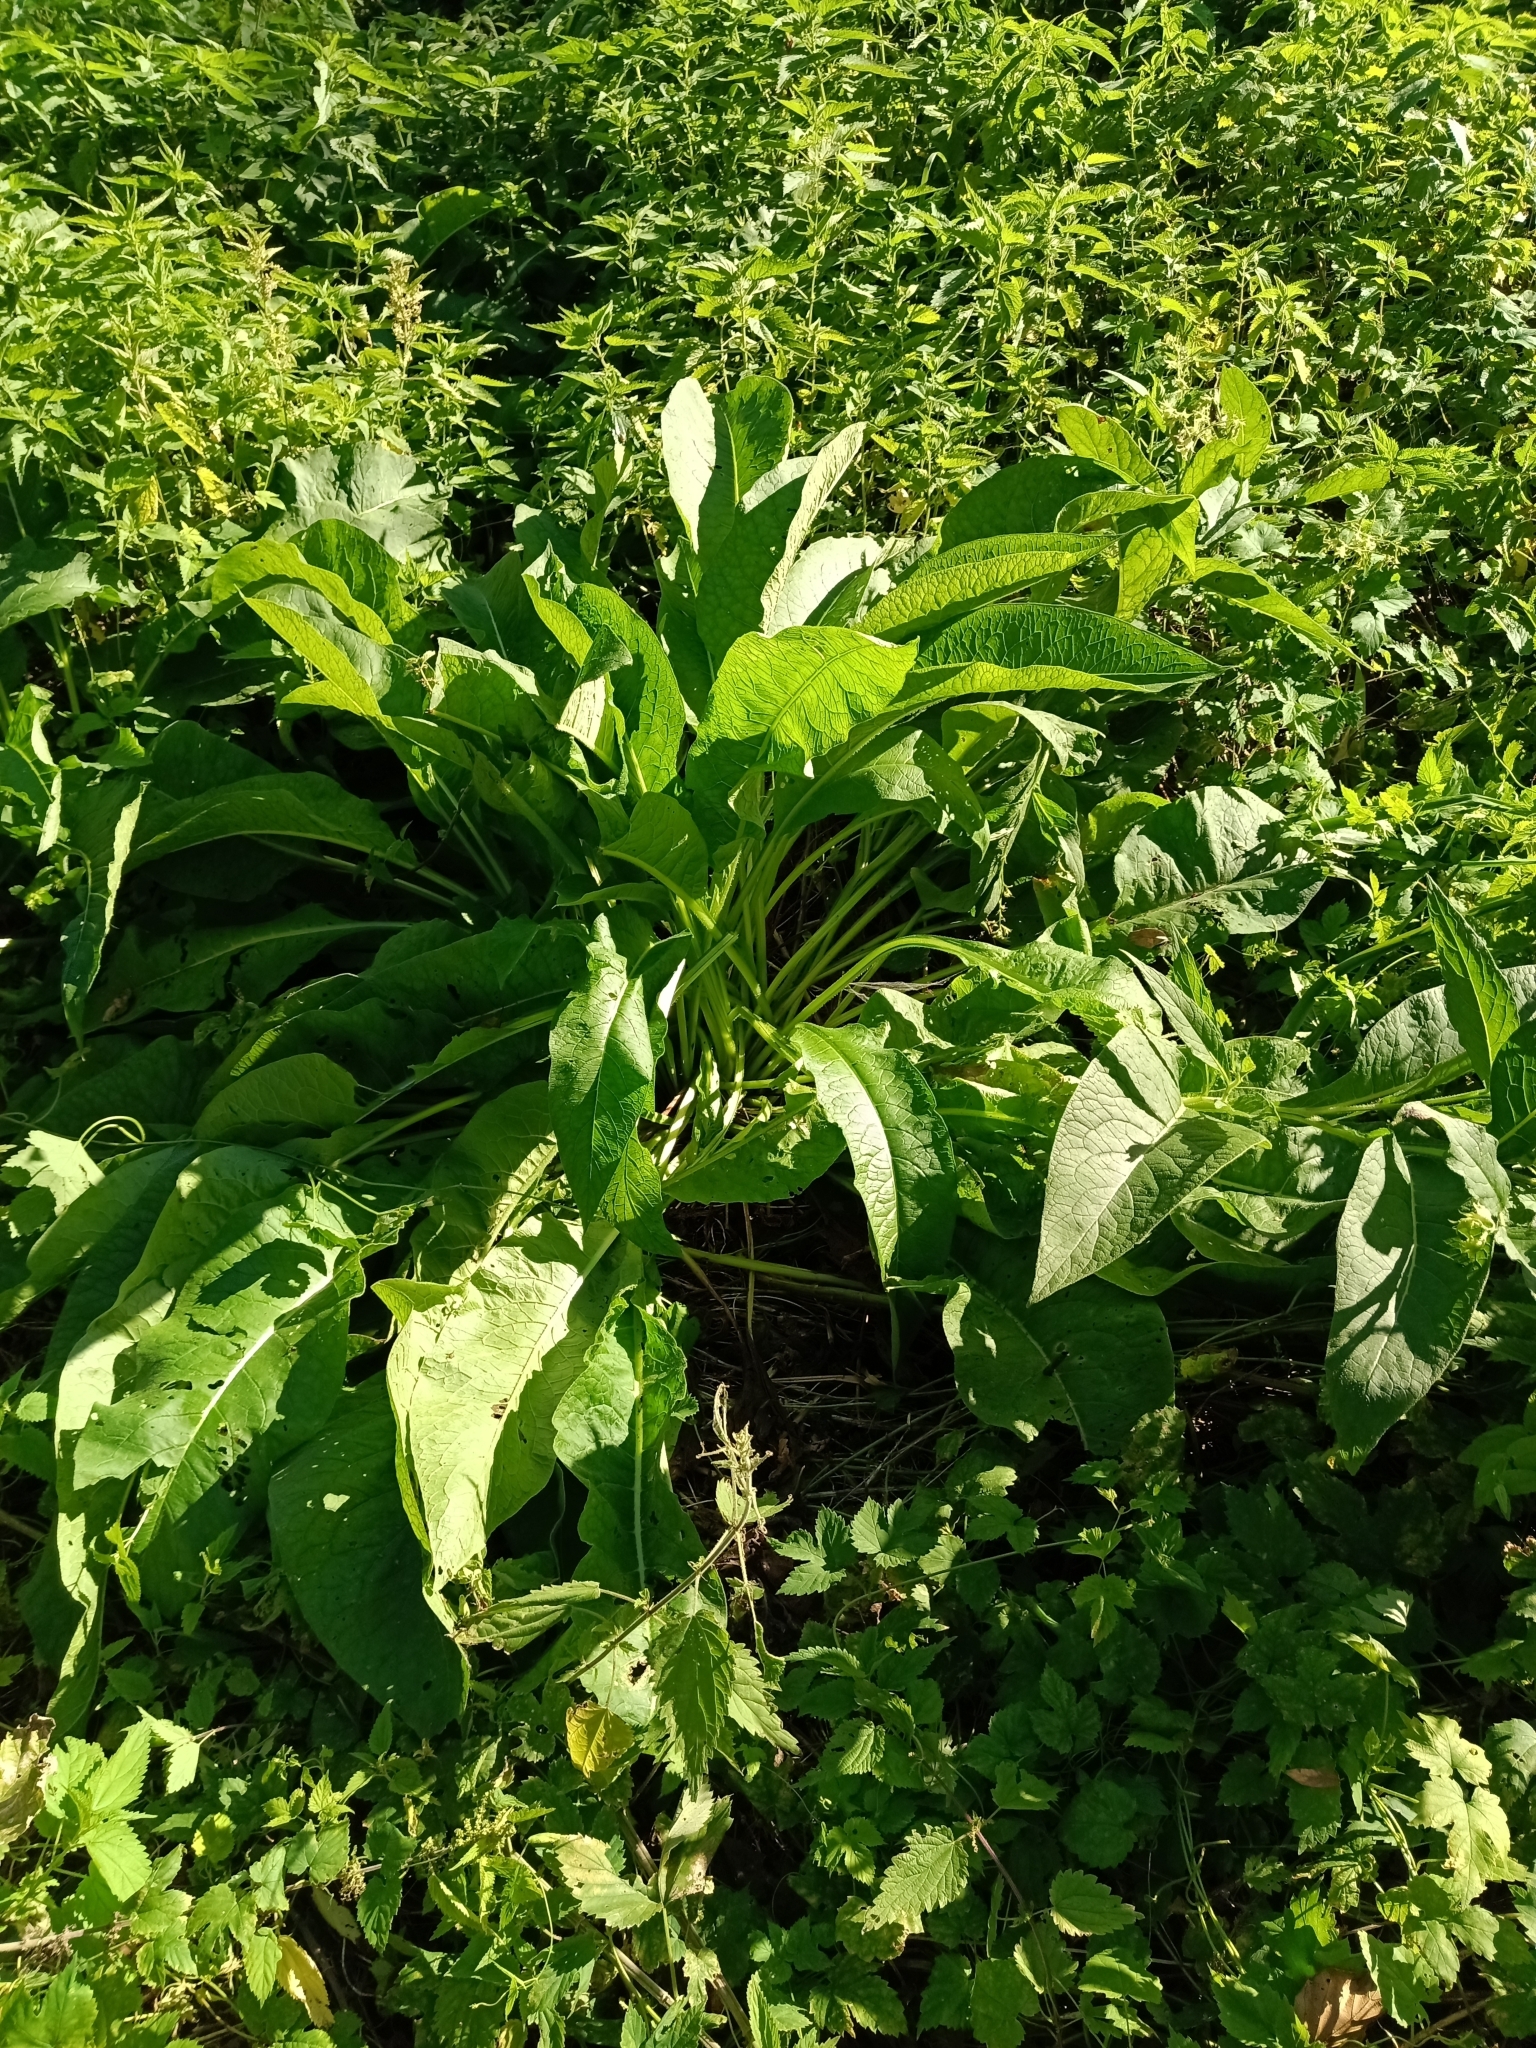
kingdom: Plantae
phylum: Tracheophyta
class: Magnoliopsida
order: Boraginales
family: Boraginaceae
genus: Symphytum
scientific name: Symphytum officinale
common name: Common comfrey
